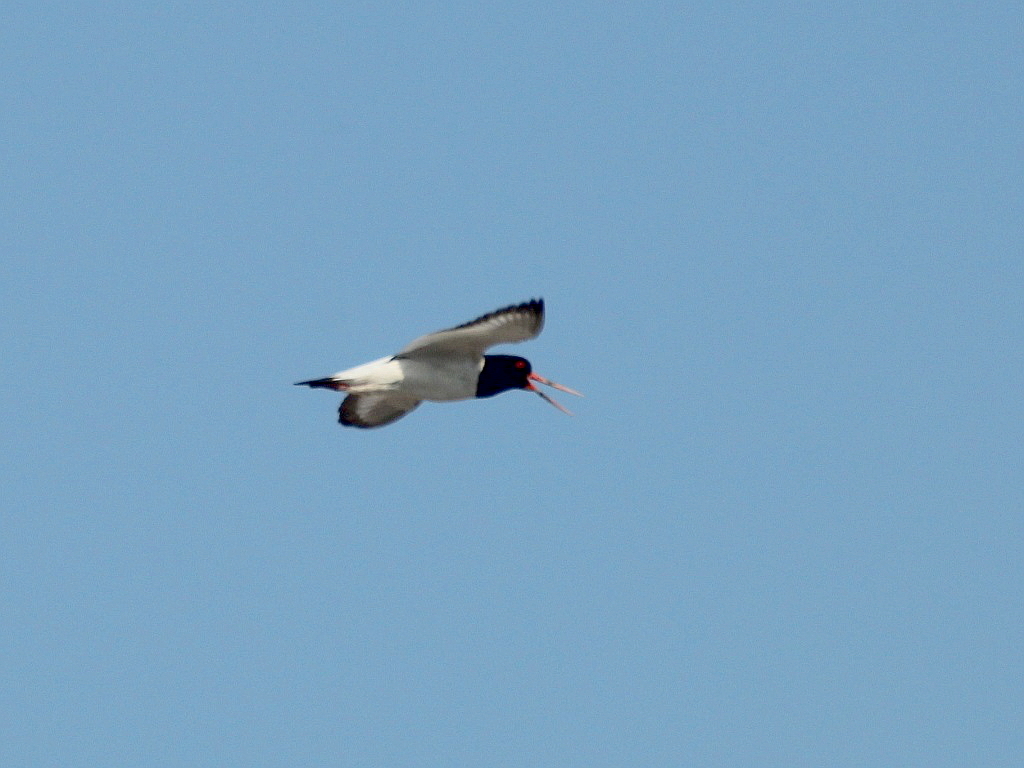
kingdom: Animalia
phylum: Chordata
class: Aves
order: Charadriiformes
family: Haematopodidae
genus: Haematopus
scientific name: Haematopus ostralegus
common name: Eurasian oystercatcher
